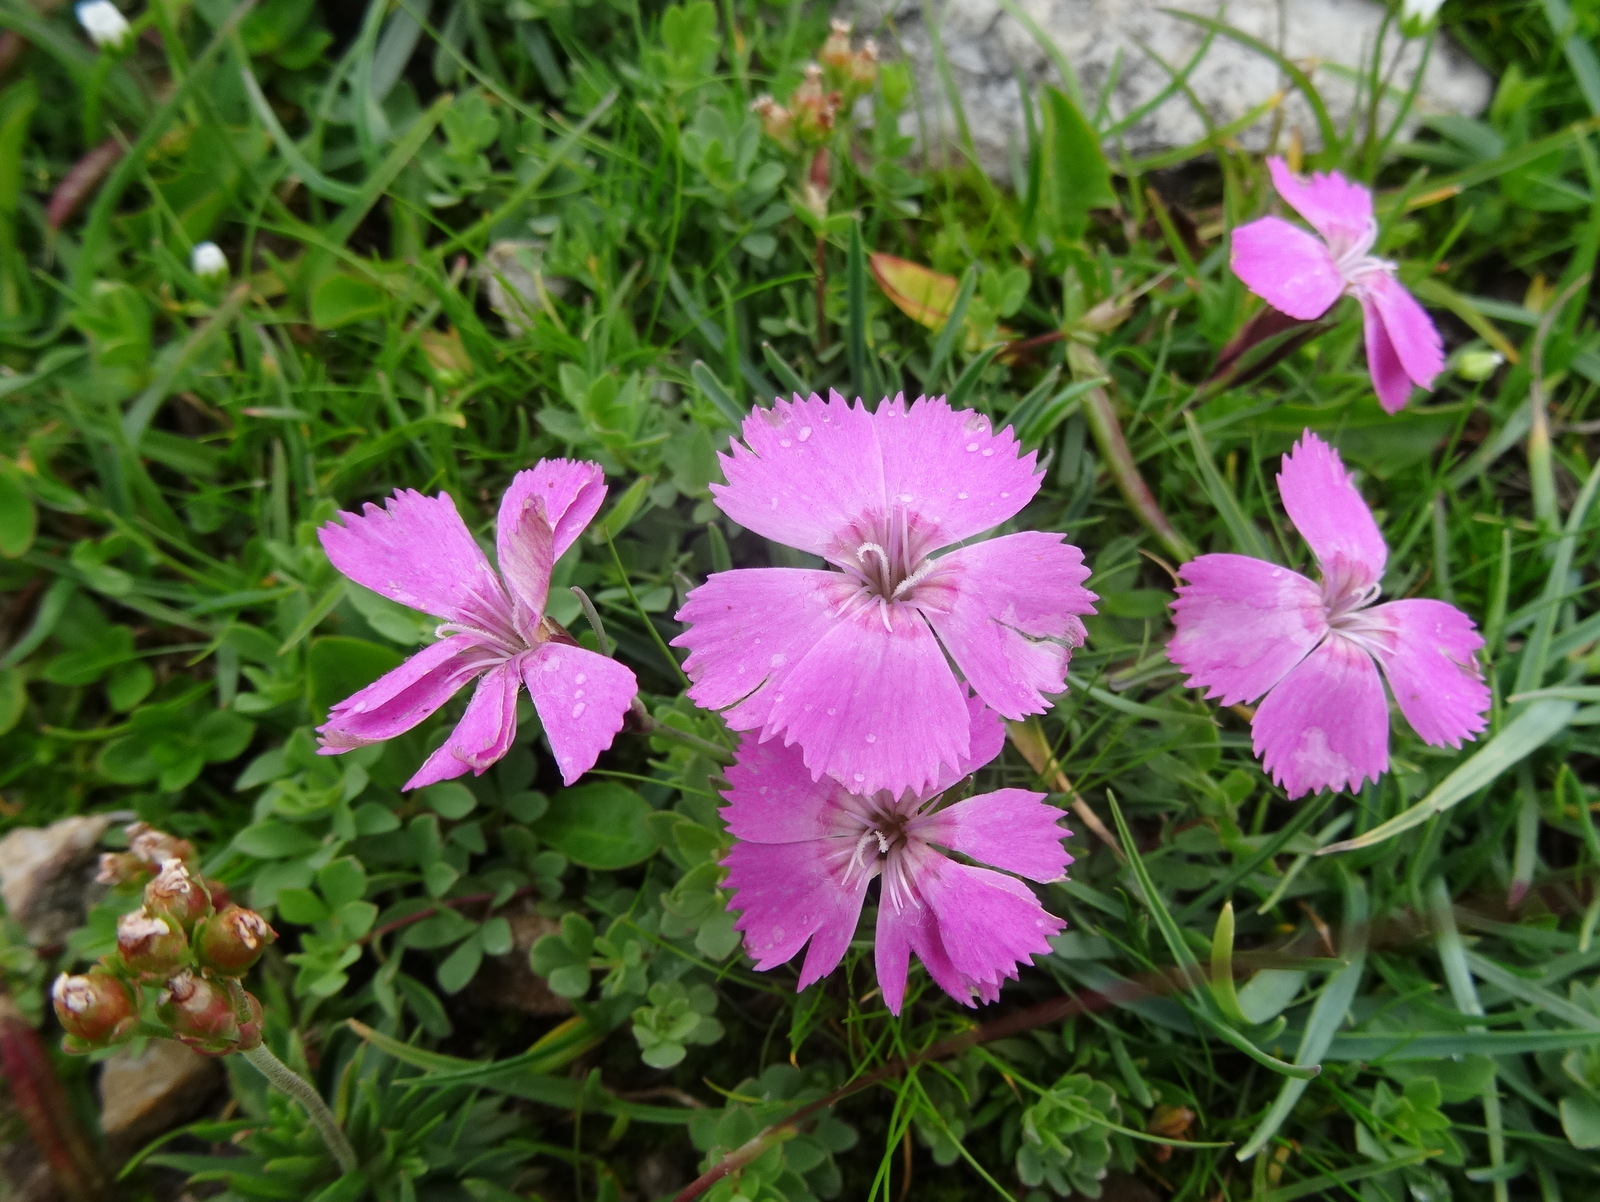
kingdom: Plantae
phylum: Tracheophyta
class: Magnoliopsida
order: Caryophyllales
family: Caryophyllaceae
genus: Dianthus
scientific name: Dianthus pavonius
